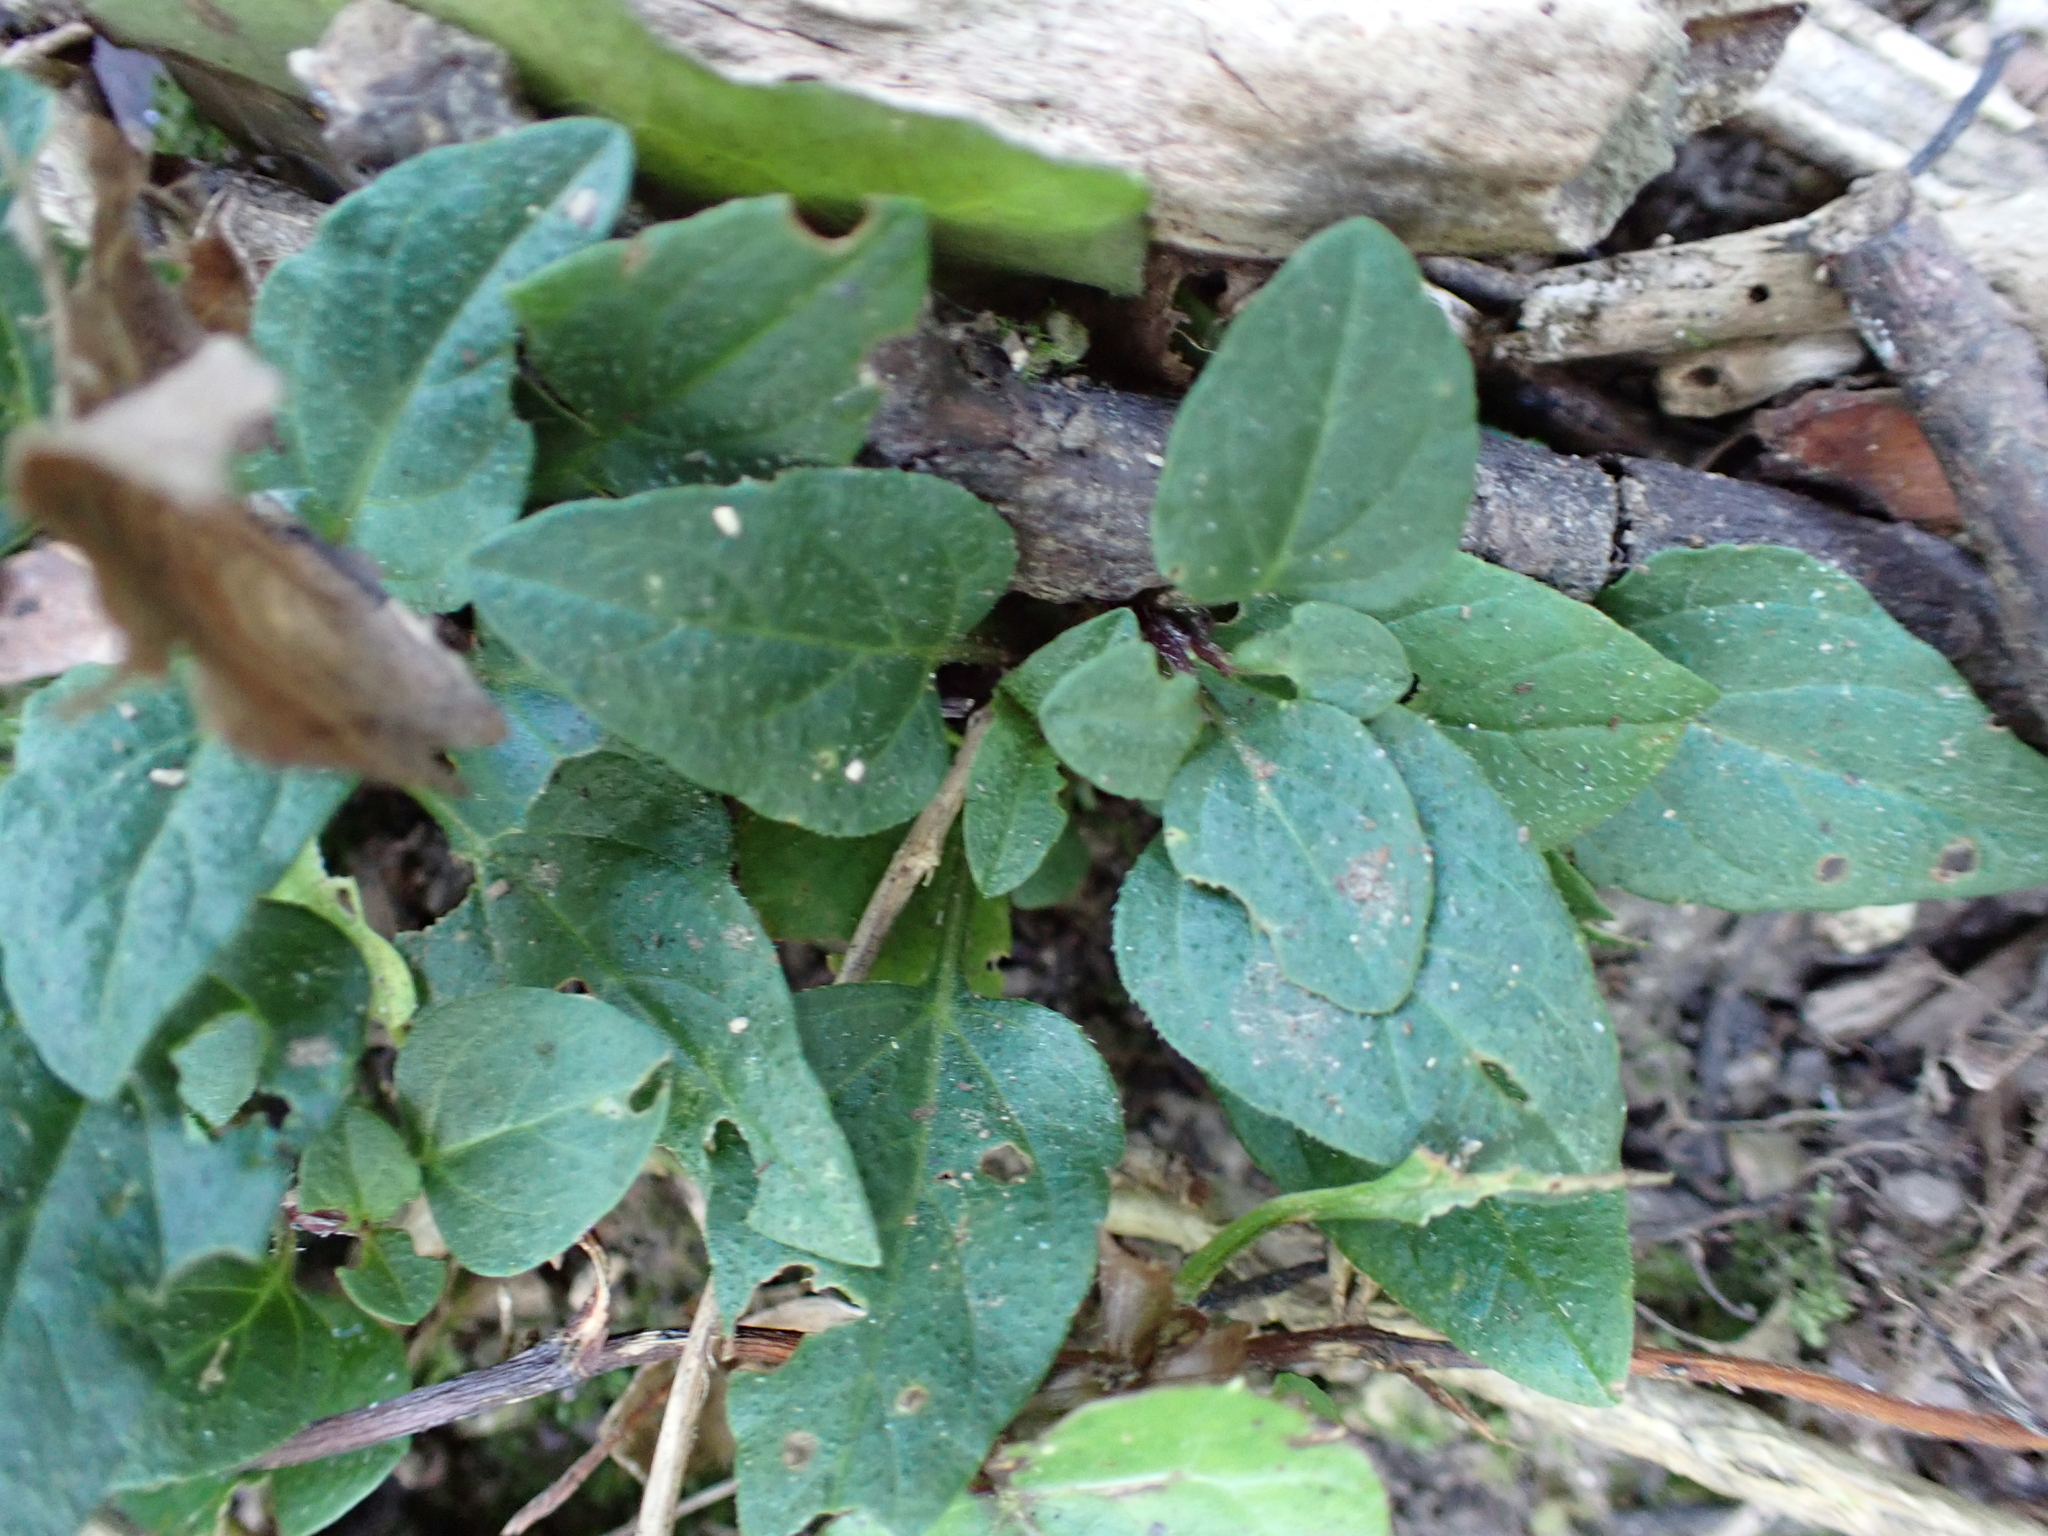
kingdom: Plantae
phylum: Tracheophyta
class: Magnoliopsida
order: Lamiales
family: Lamiaceae
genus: Prunella
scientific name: Prunella vulgaris
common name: Heal-all
